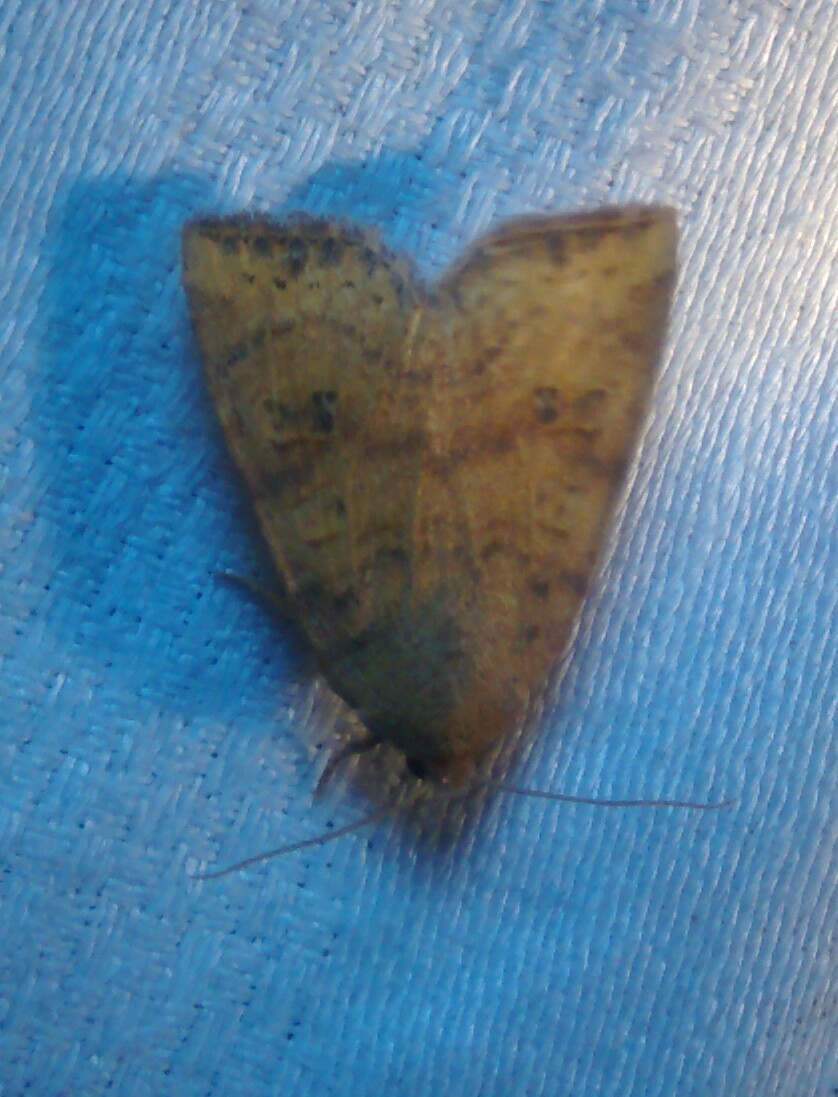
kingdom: Animalia
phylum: Arthropoda
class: Insecta
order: Lepidoptera
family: Noctuidae
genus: Anathix
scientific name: Anathix ralla
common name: Dotted sallow
